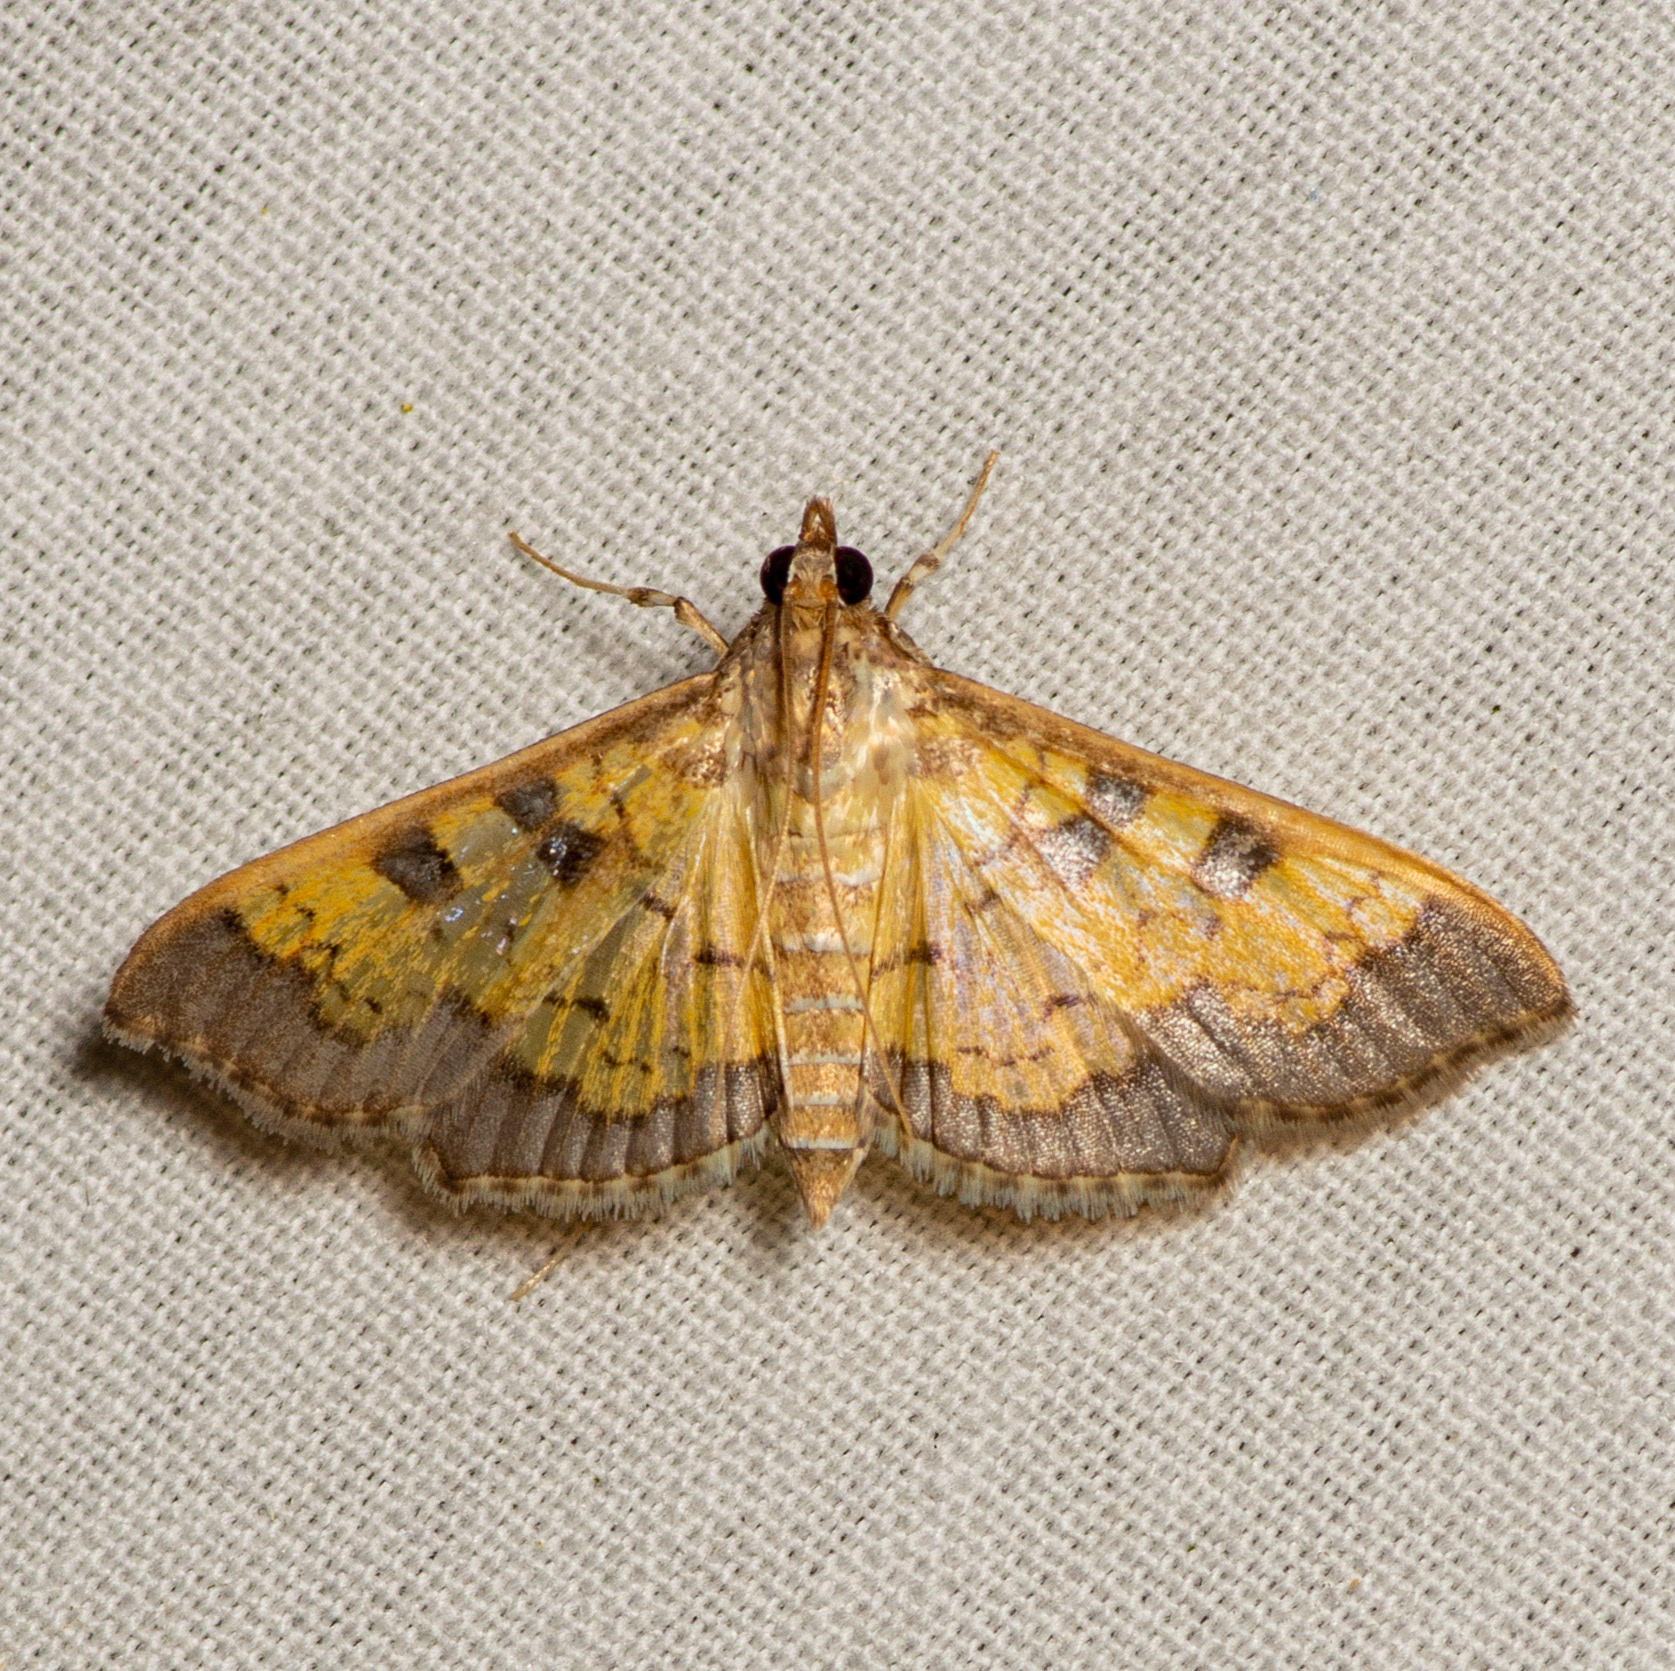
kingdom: Animalia
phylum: Arthropoda
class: Insecta
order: Lepidoptera
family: Crambidae
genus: Cryptographis
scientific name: Cryptographis elealis
